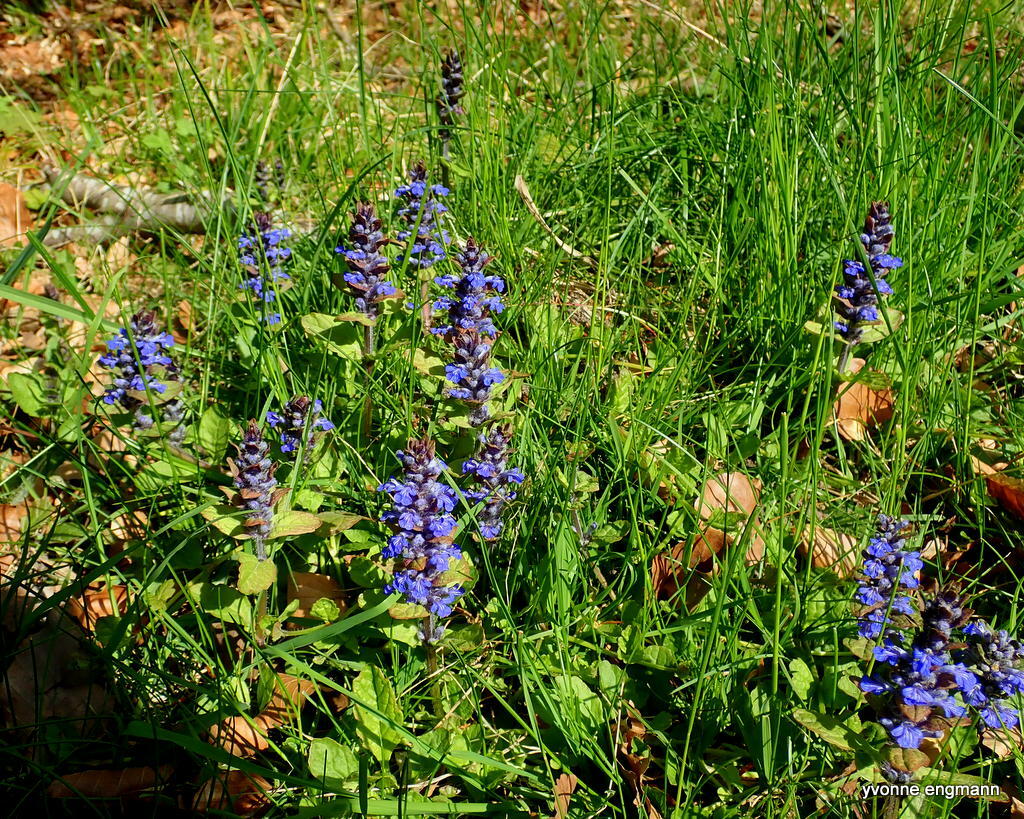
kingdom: Plantae
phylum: Tracheophyta
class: Magnoliopsida
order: Lamiales
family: Lamiaceae
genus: Ajuga
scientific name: Ajuga reptans
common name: Bugle
